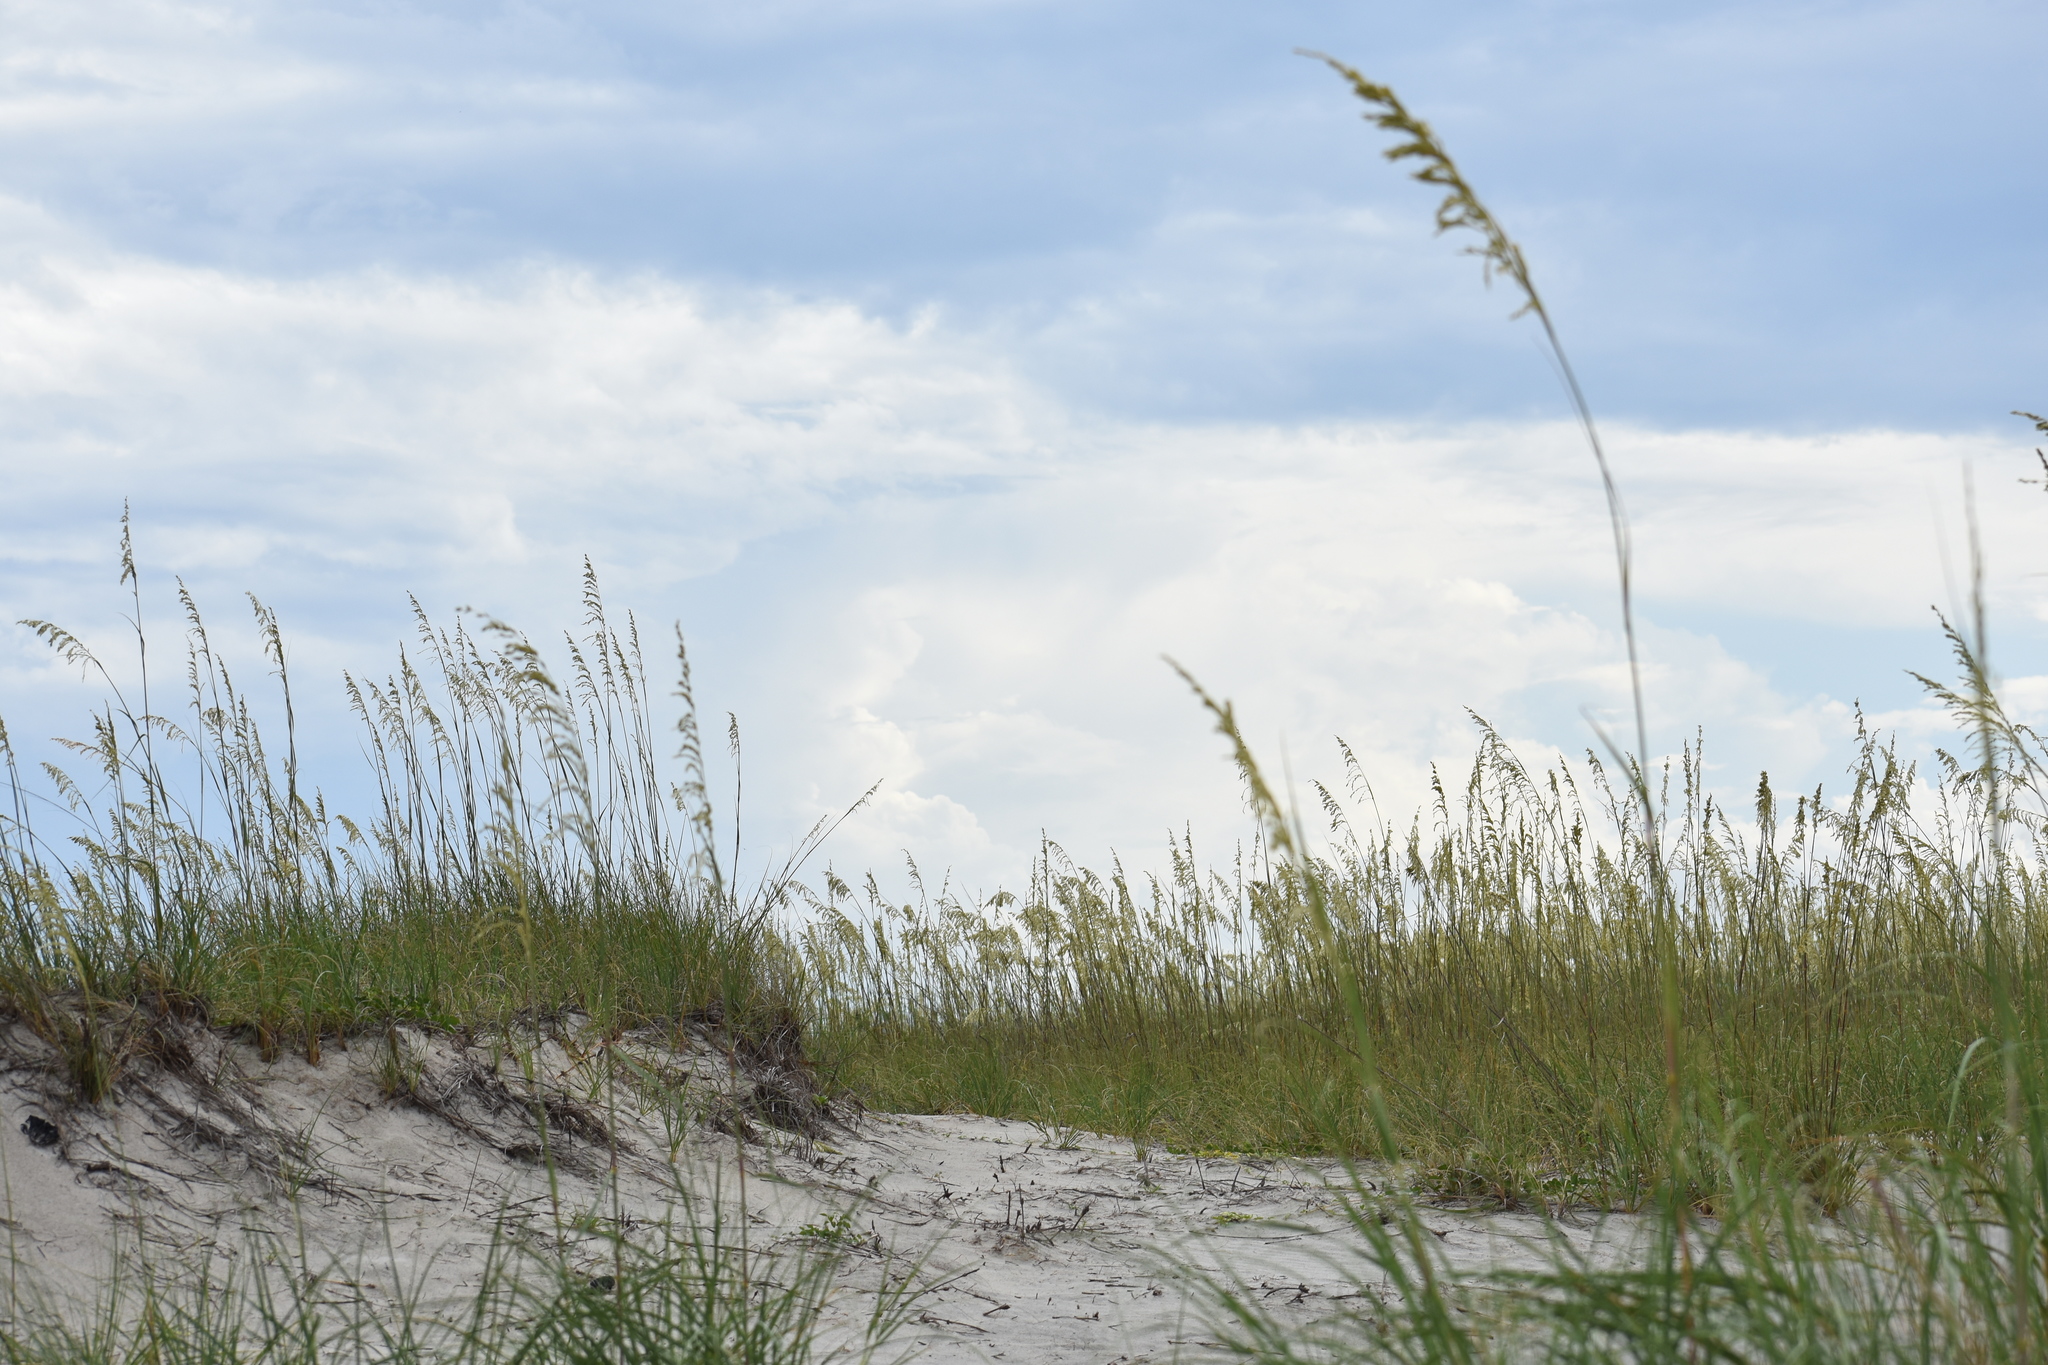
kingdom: Plantae
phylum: Tracheophyta
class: Liliopsida
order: Poales
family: Poaceae
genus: Uniola
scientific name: Uniola paniculata
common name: Seaside-oats
